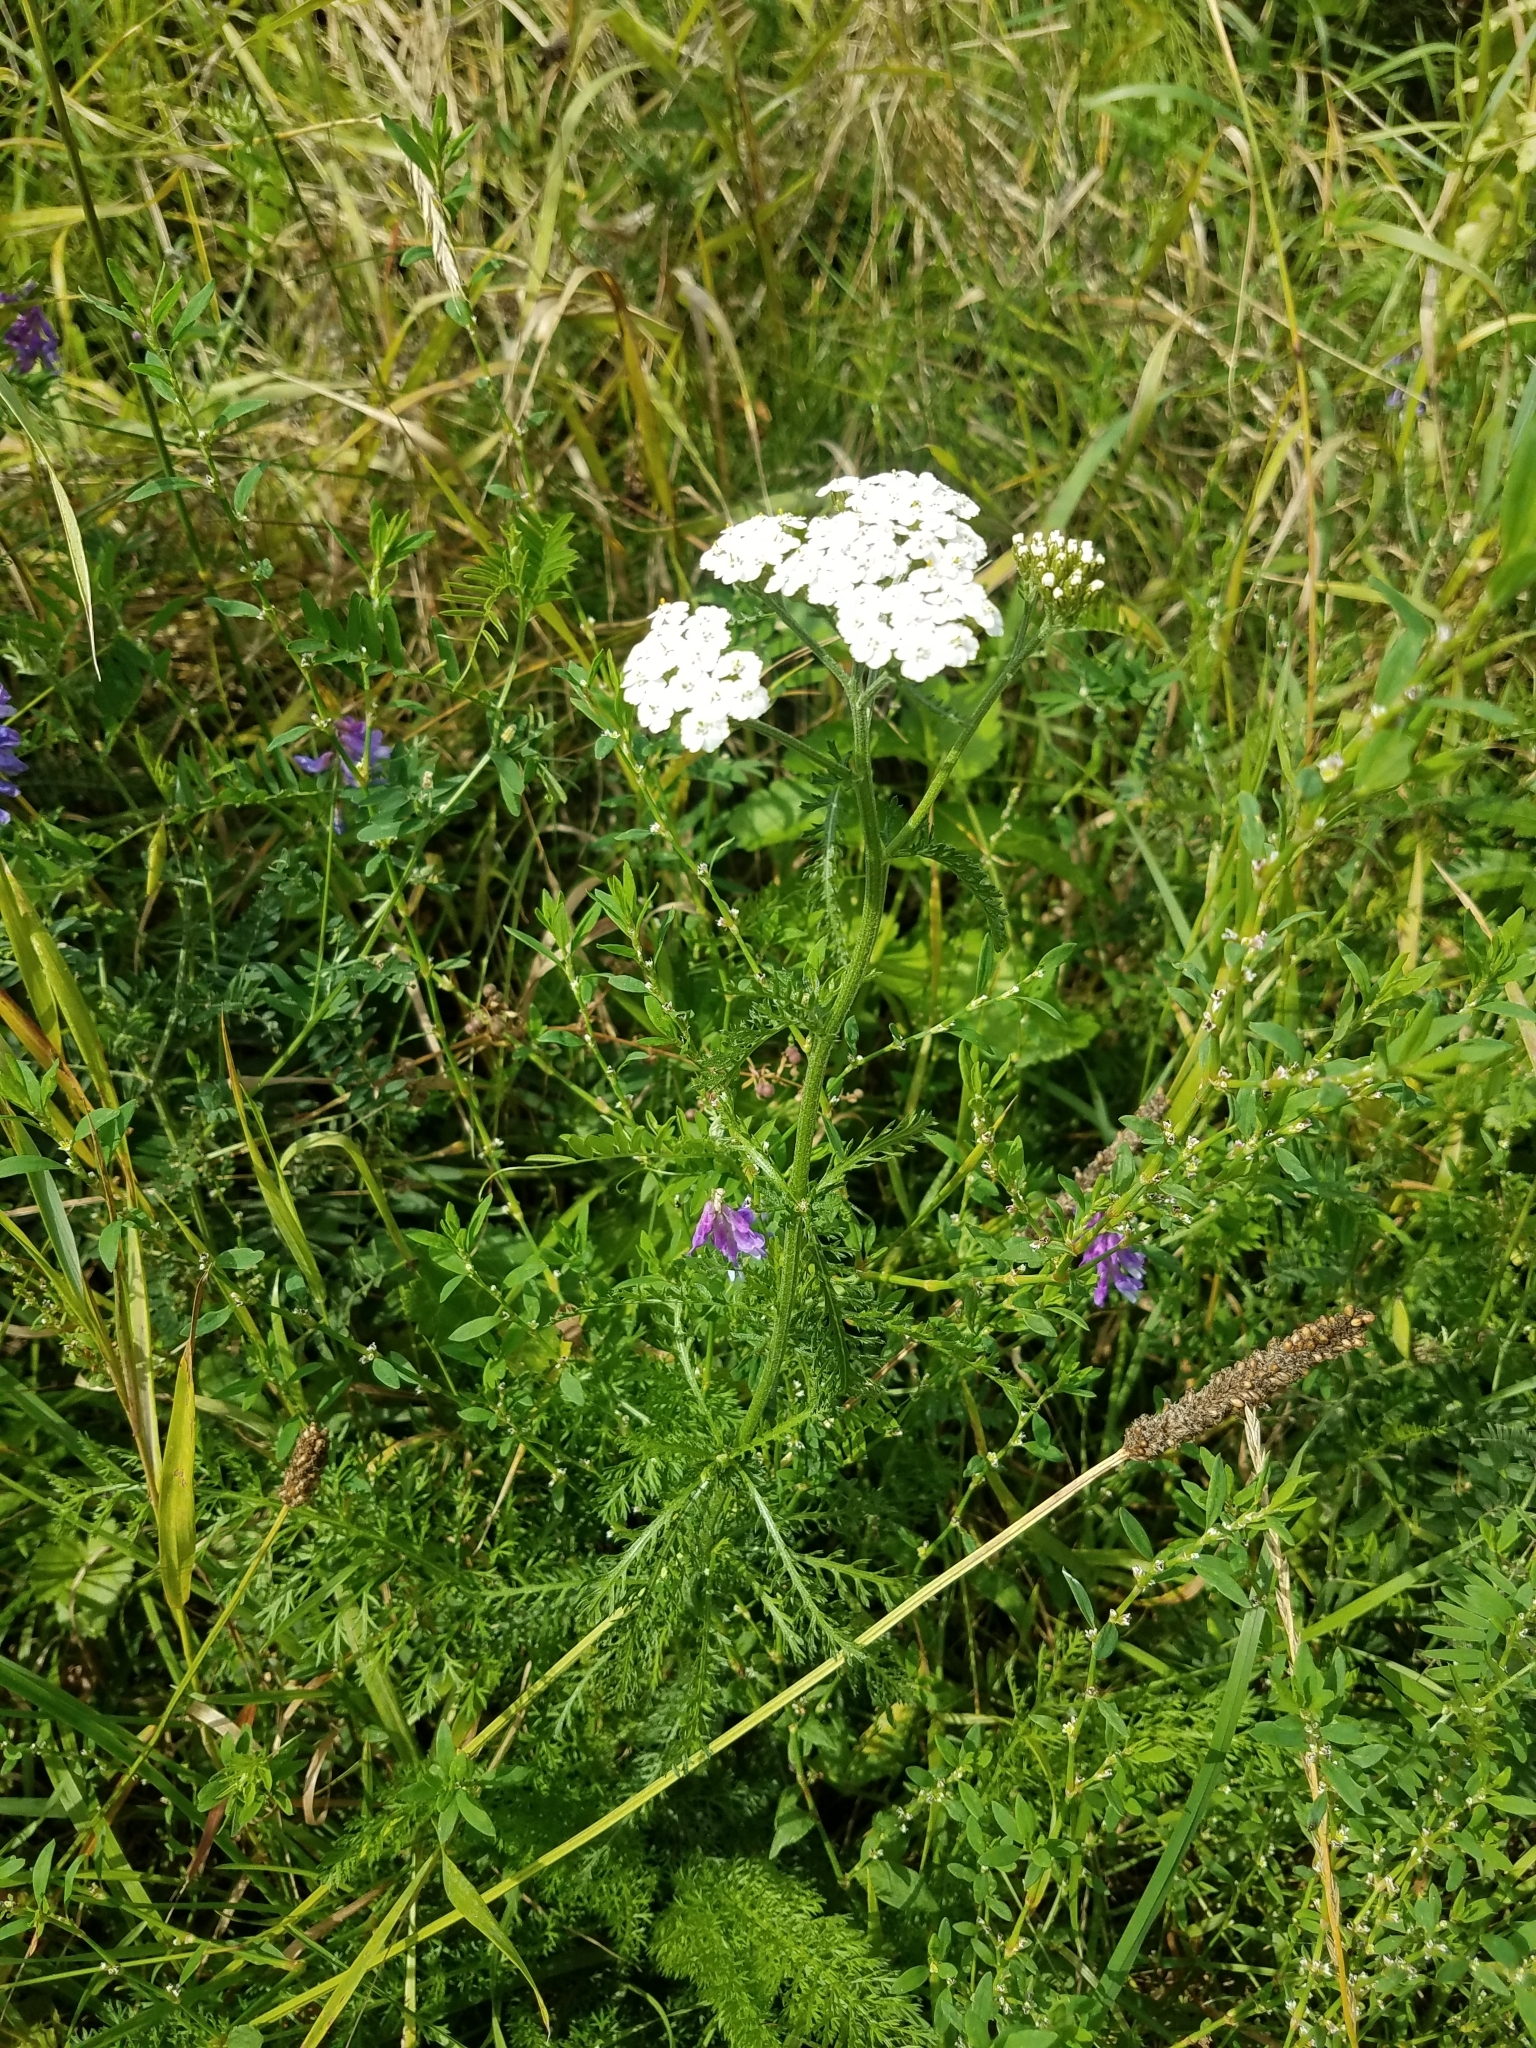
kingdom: Plantae
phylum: Tracheophyta
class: Magnoliopsida
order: Asterales
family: Asteraceae
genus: Achillea
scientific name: Achillea millefolium
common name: Yarrow
